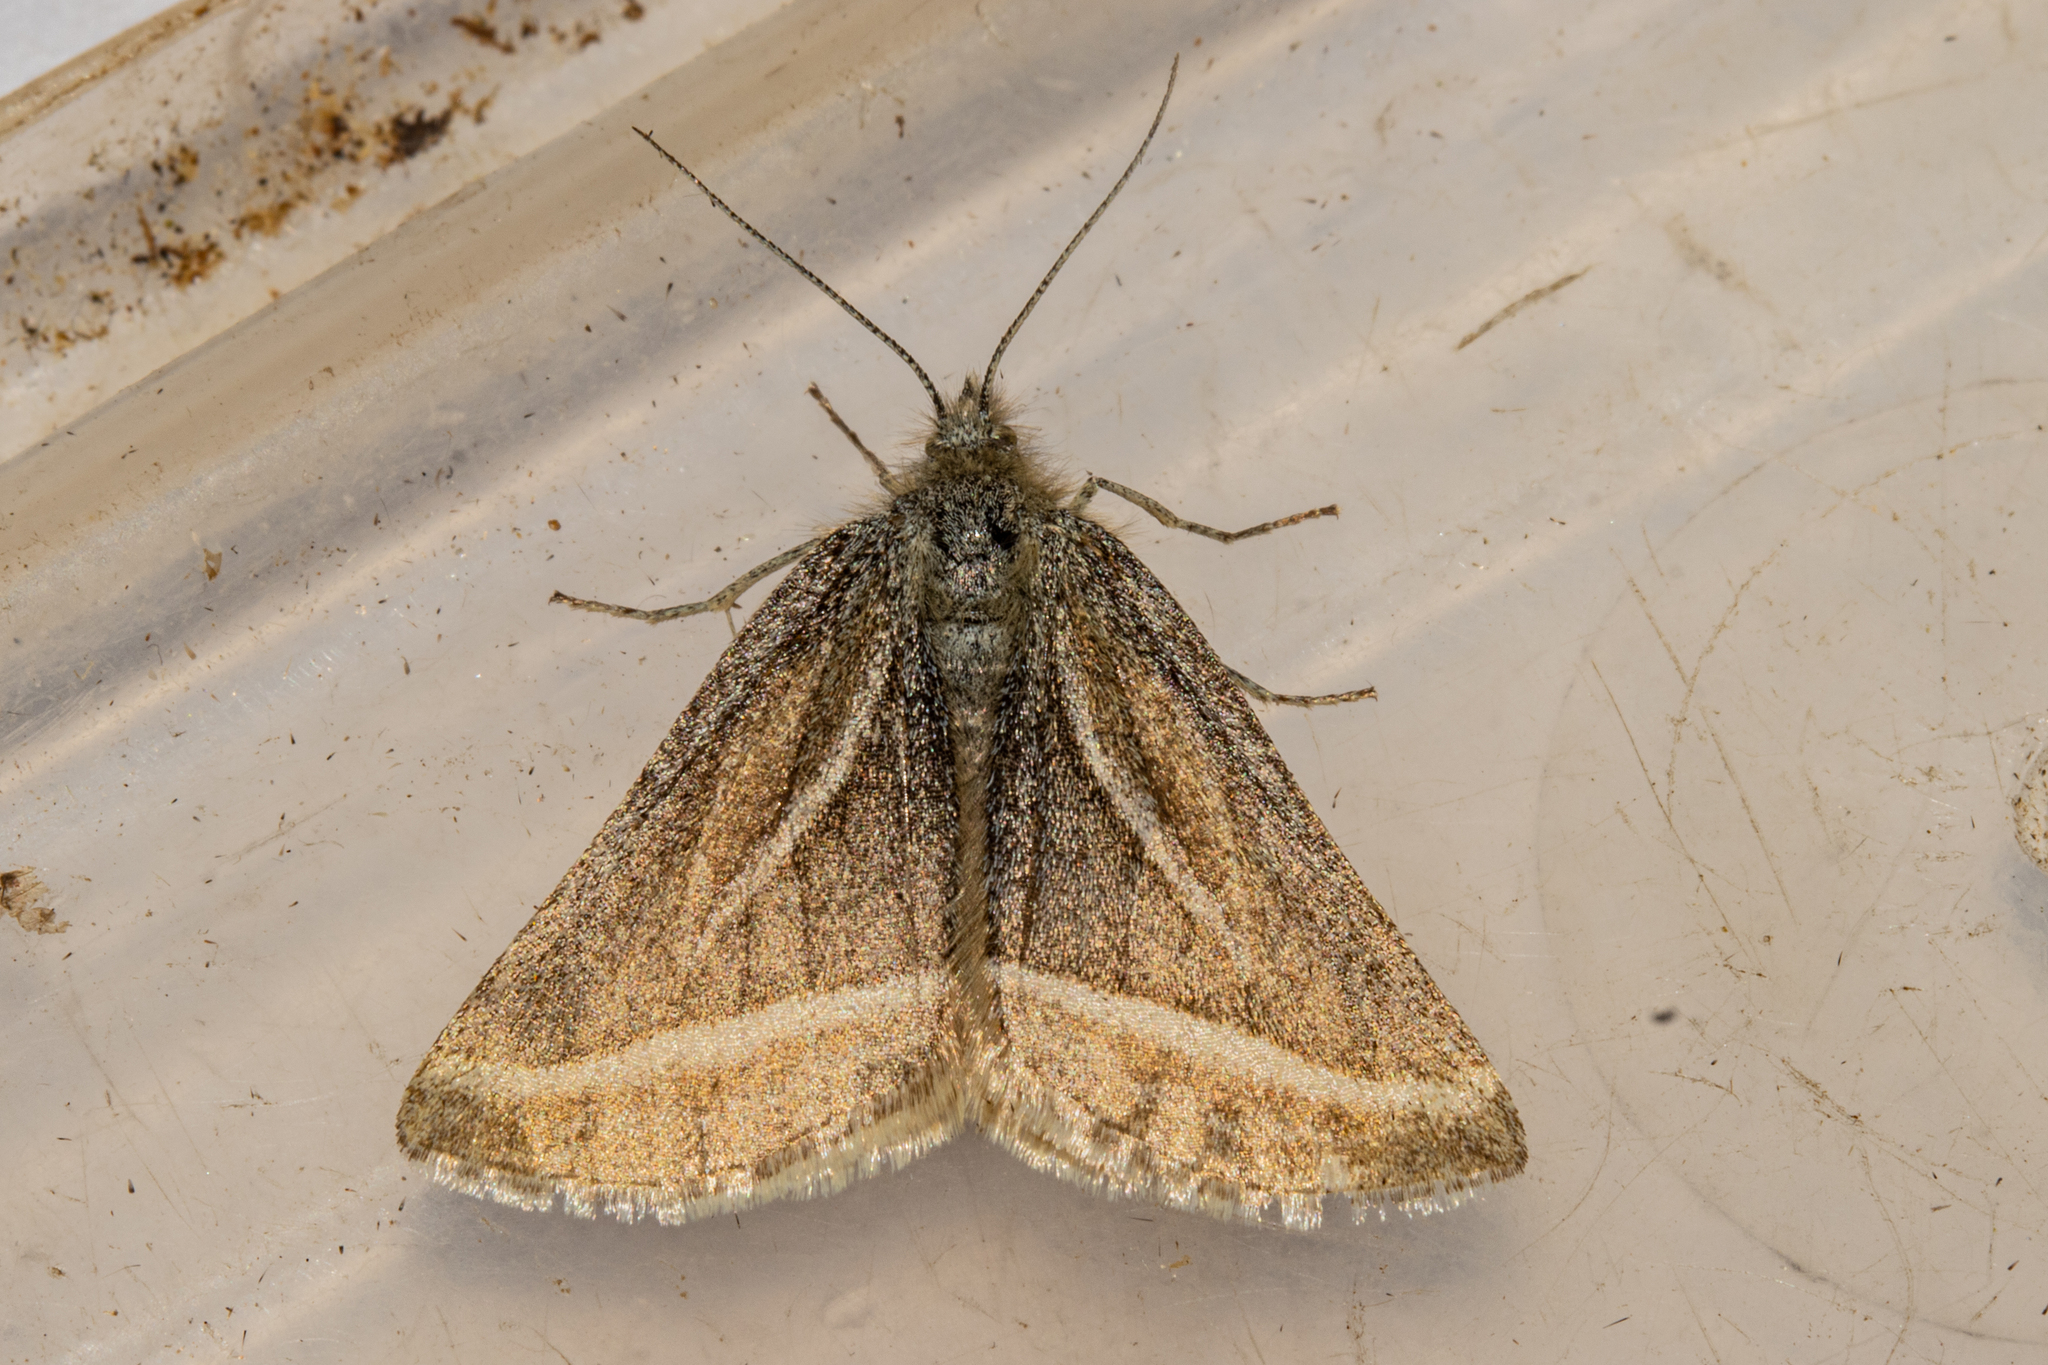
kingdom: Animalia
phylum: Arthropoda
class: Insecta
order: Lepidoptera
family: Geometridae
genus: Aponotoreas
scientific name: Aponotoreas insignis
